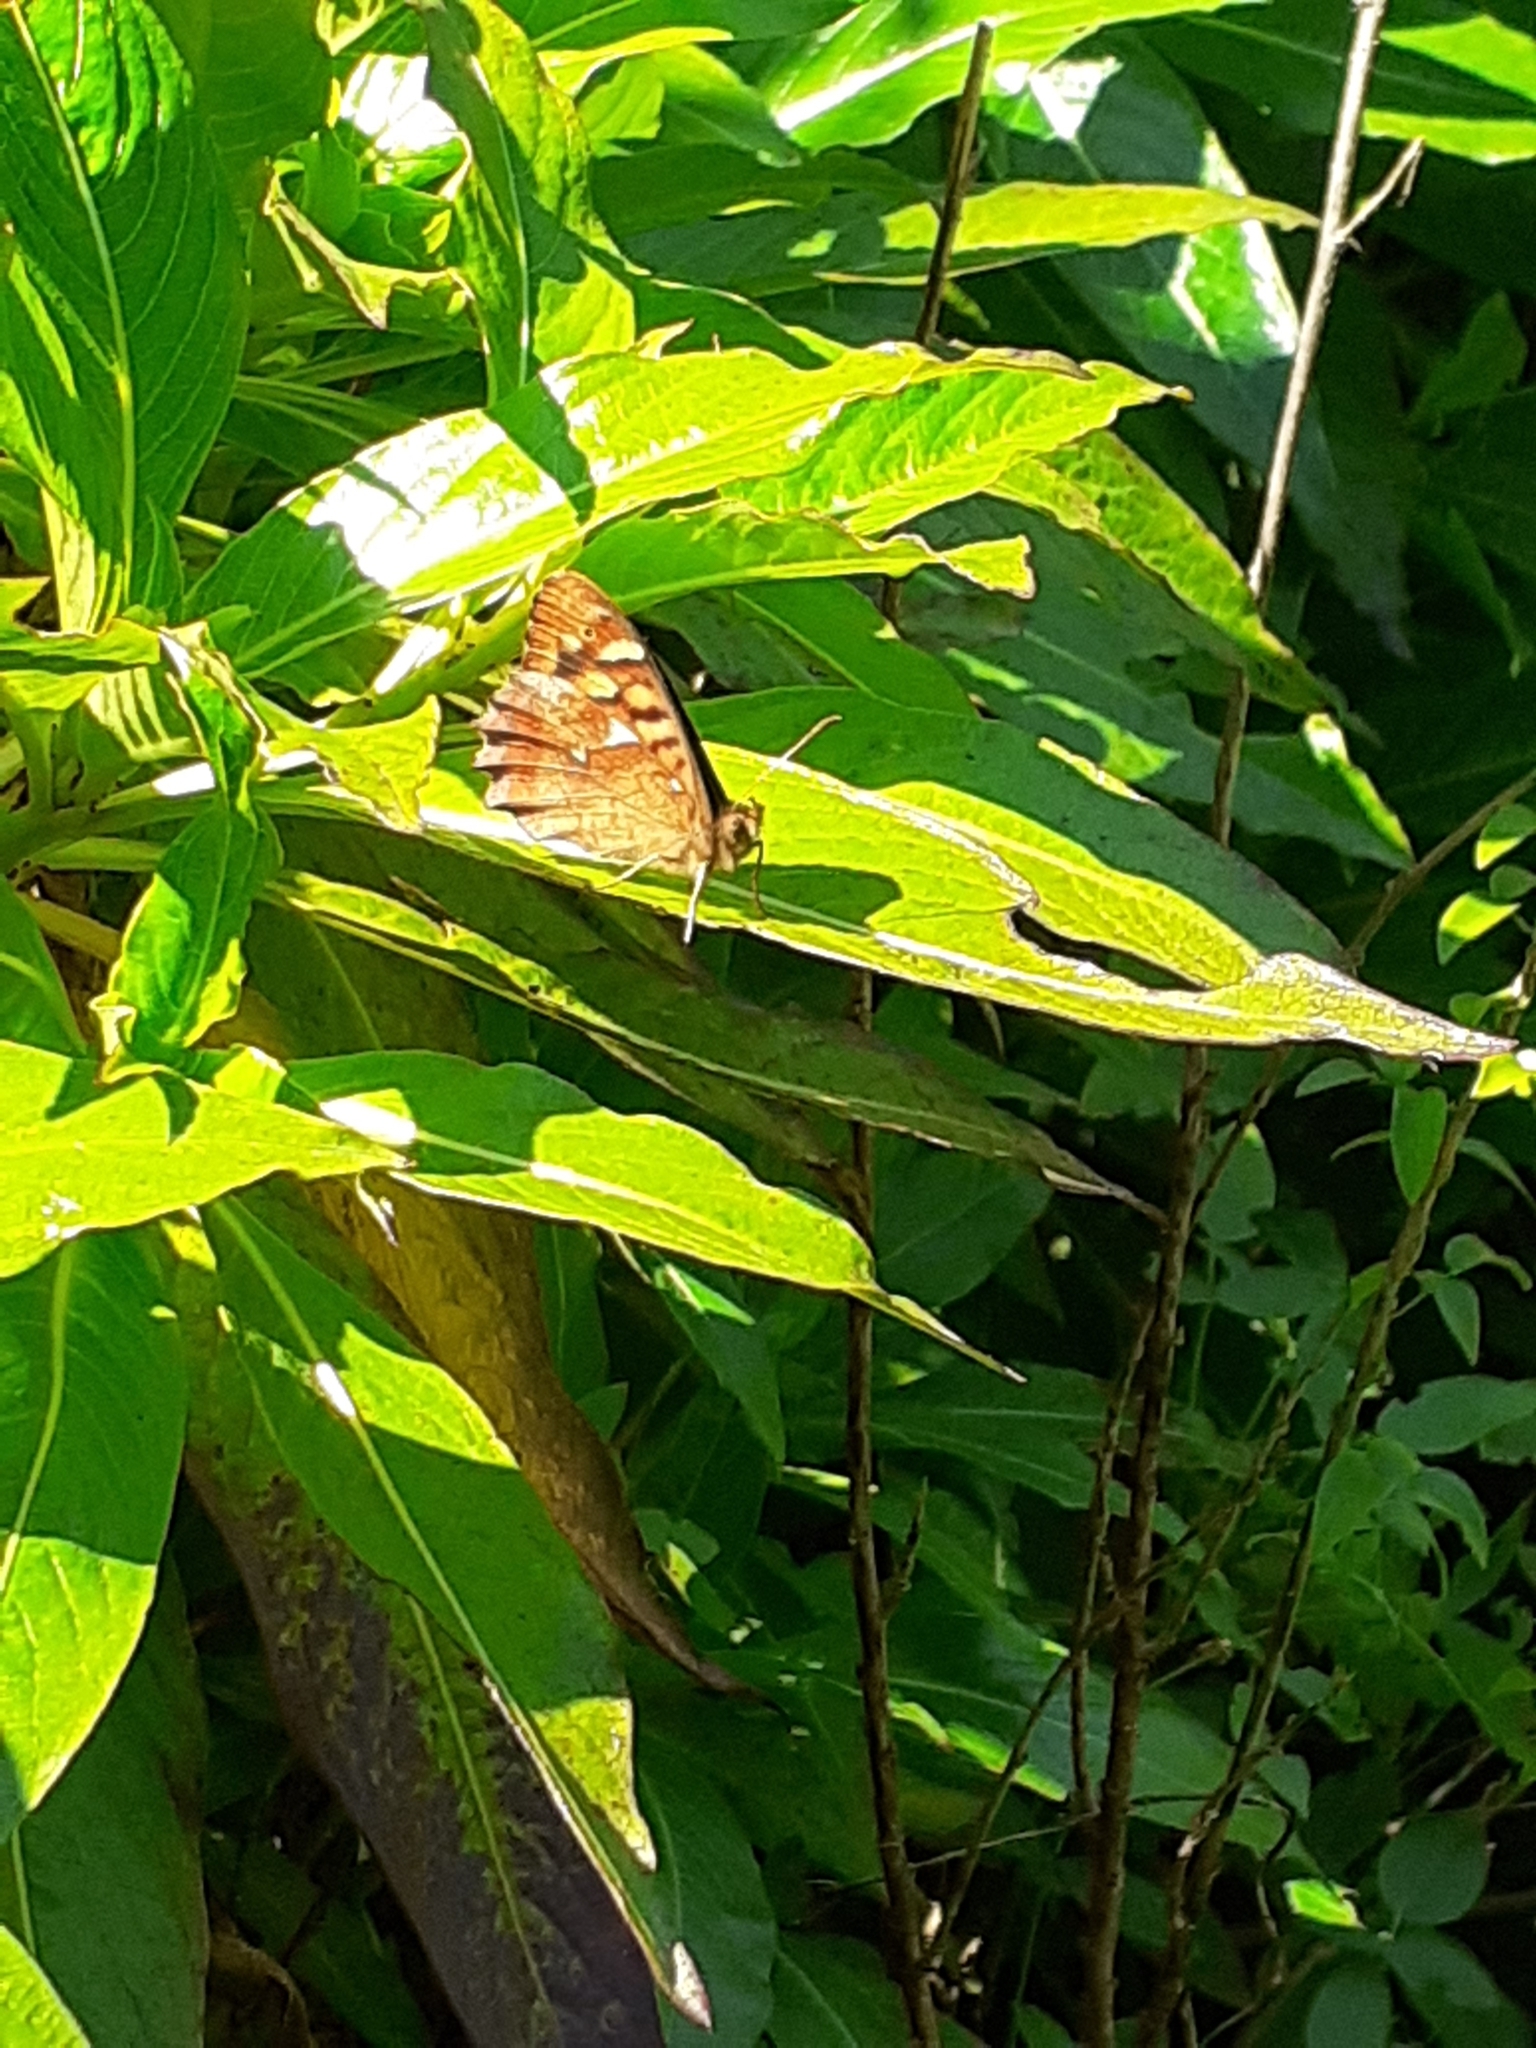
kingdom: Animalia
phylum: Arthropoda
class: Insecta
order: Lepidoptera
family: Nymphalidae
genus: Pararge
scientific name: Pararge aegeria
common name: Speckled wood
